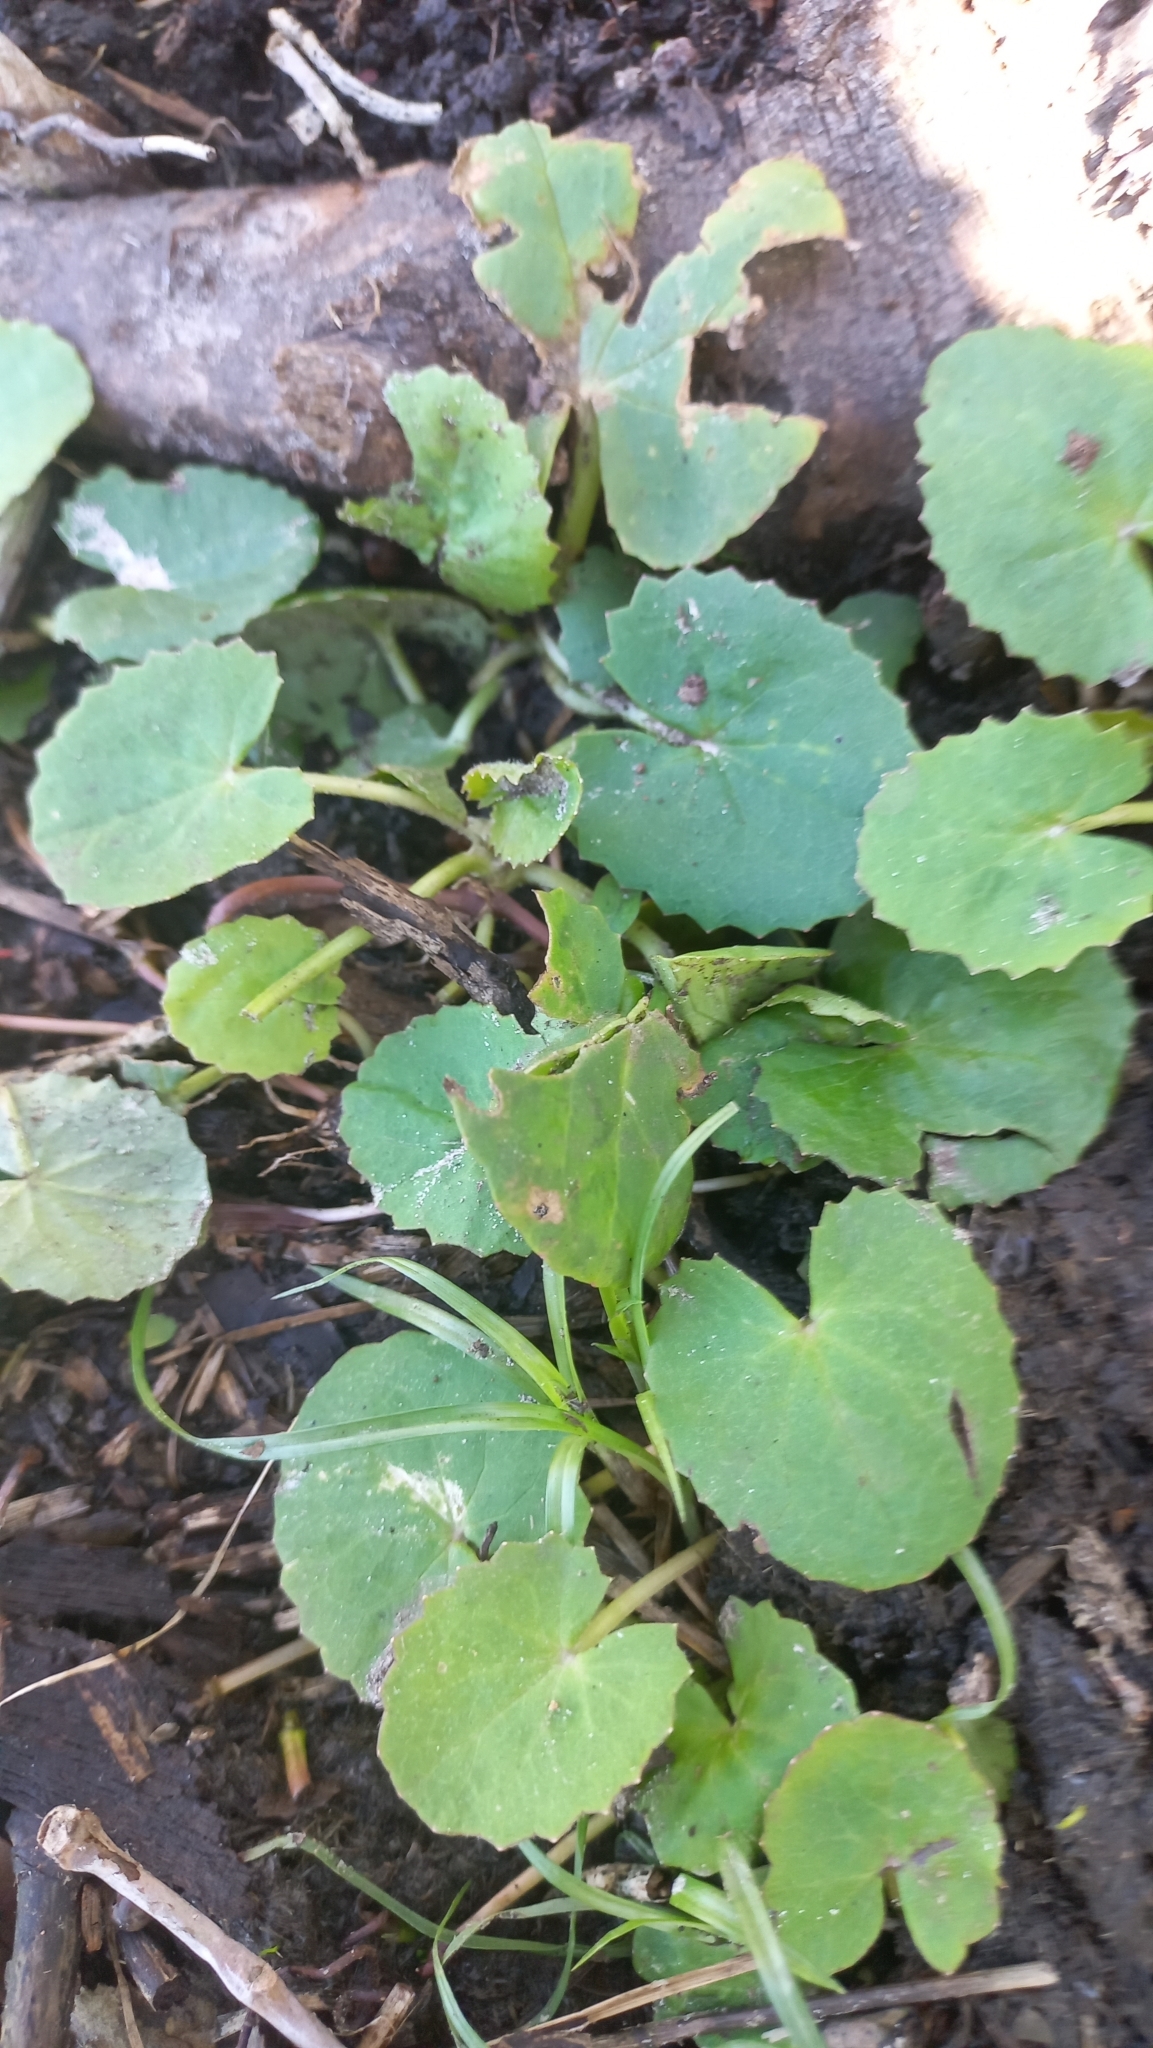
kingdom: Plantae
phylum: Tracheophyta
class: Magnoliopsida
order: Apiales
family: Apiaceae
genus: Centella
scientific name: Centella asiatica
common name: Spadeleaf
